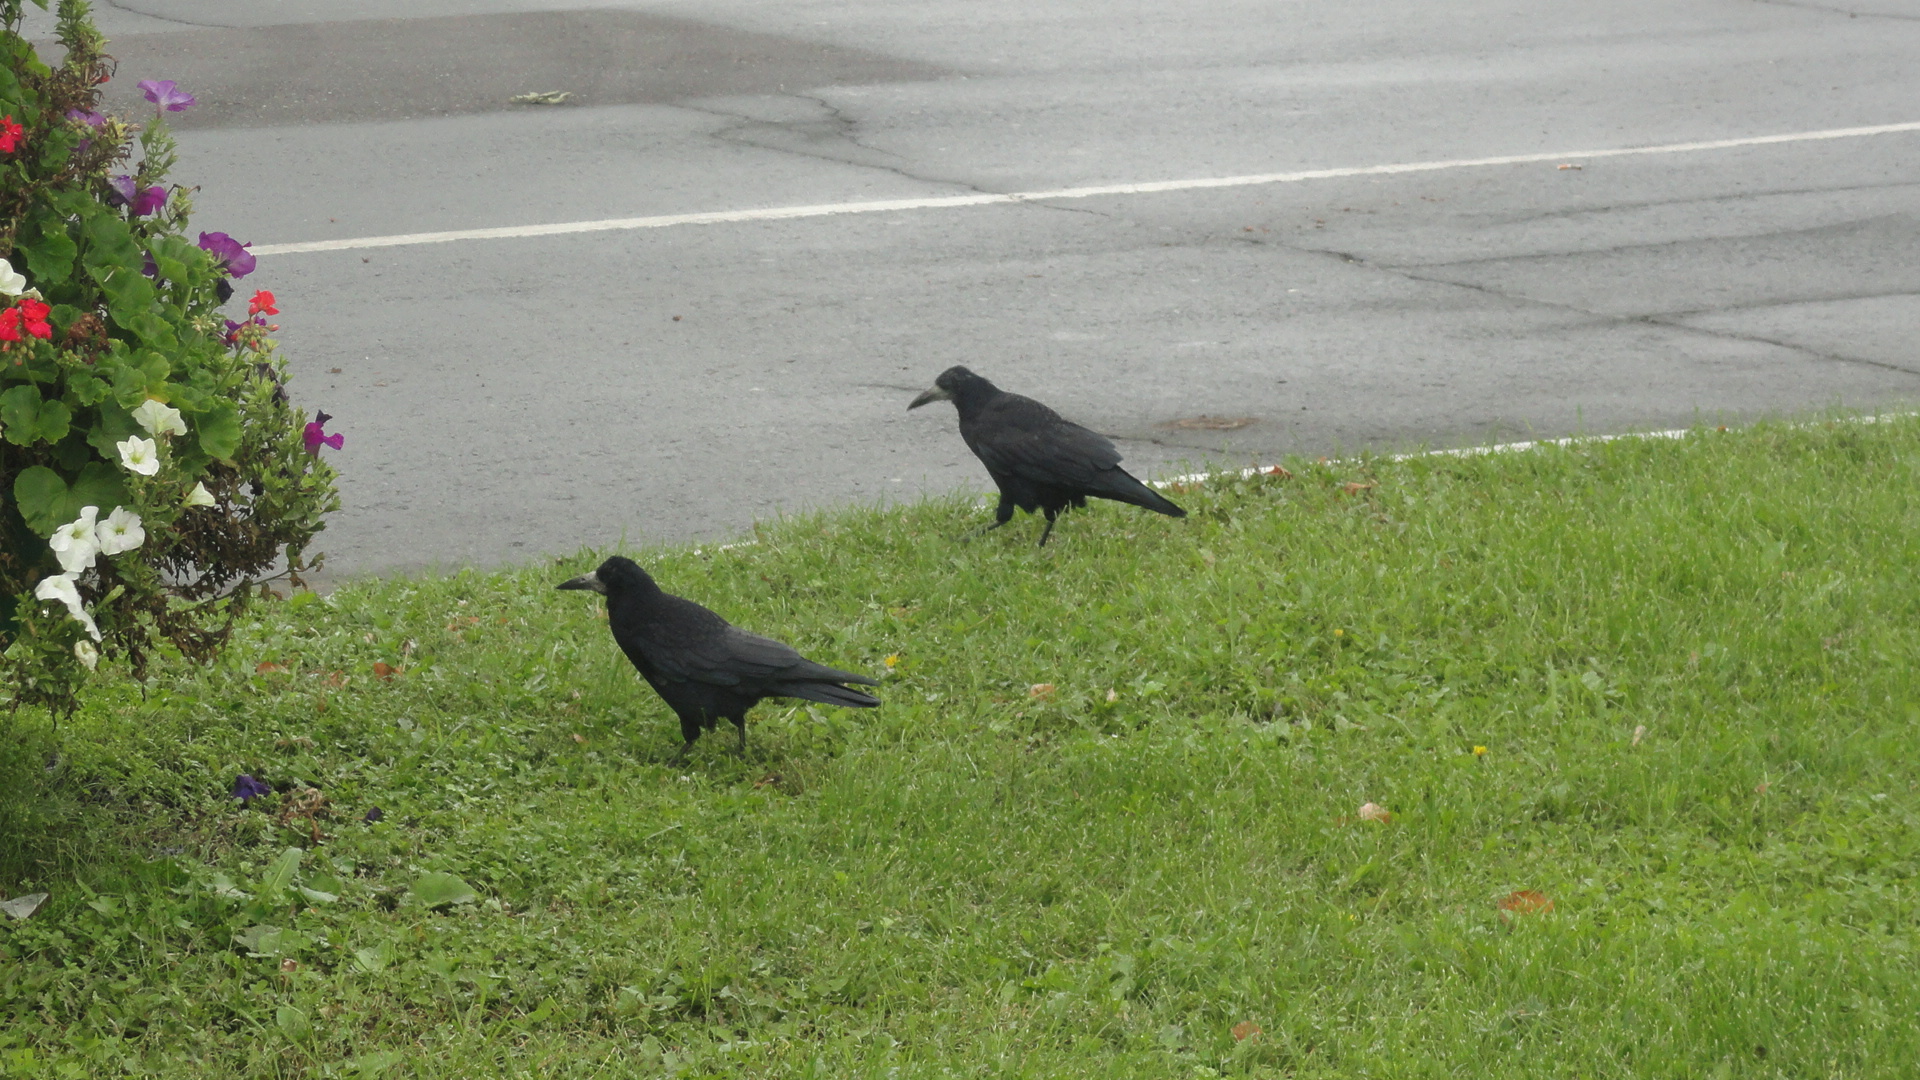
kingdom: Animalia
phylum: Chordata
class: Aves
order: Passeriformes
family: Corvidae
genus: Corvus
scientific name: Corvus frugilegus
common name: Rook
